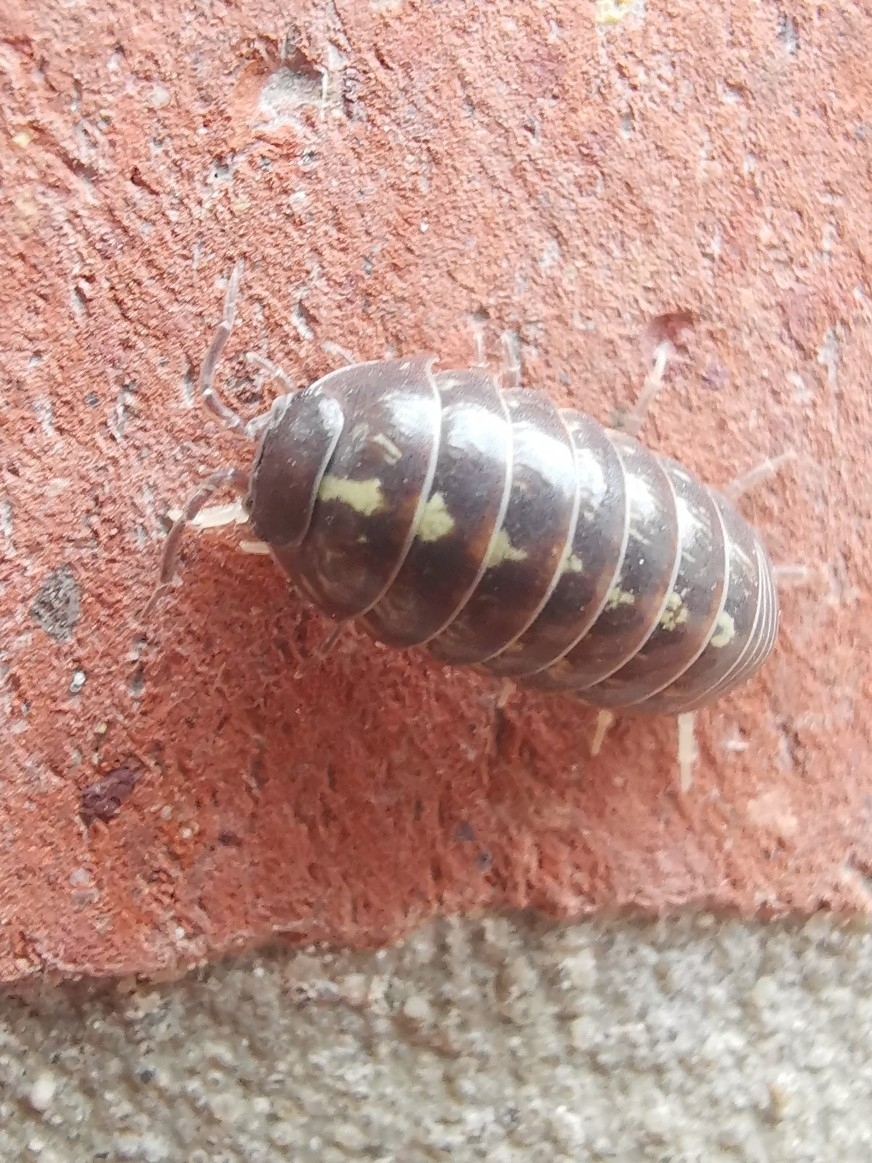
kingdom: Animalia
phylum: Arthropoda
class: Malacostraca
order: Isopoda
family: Armadillidiidae
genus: Armadillidium
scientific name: Armadillidium vulgare
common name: Common pill woodlouse
